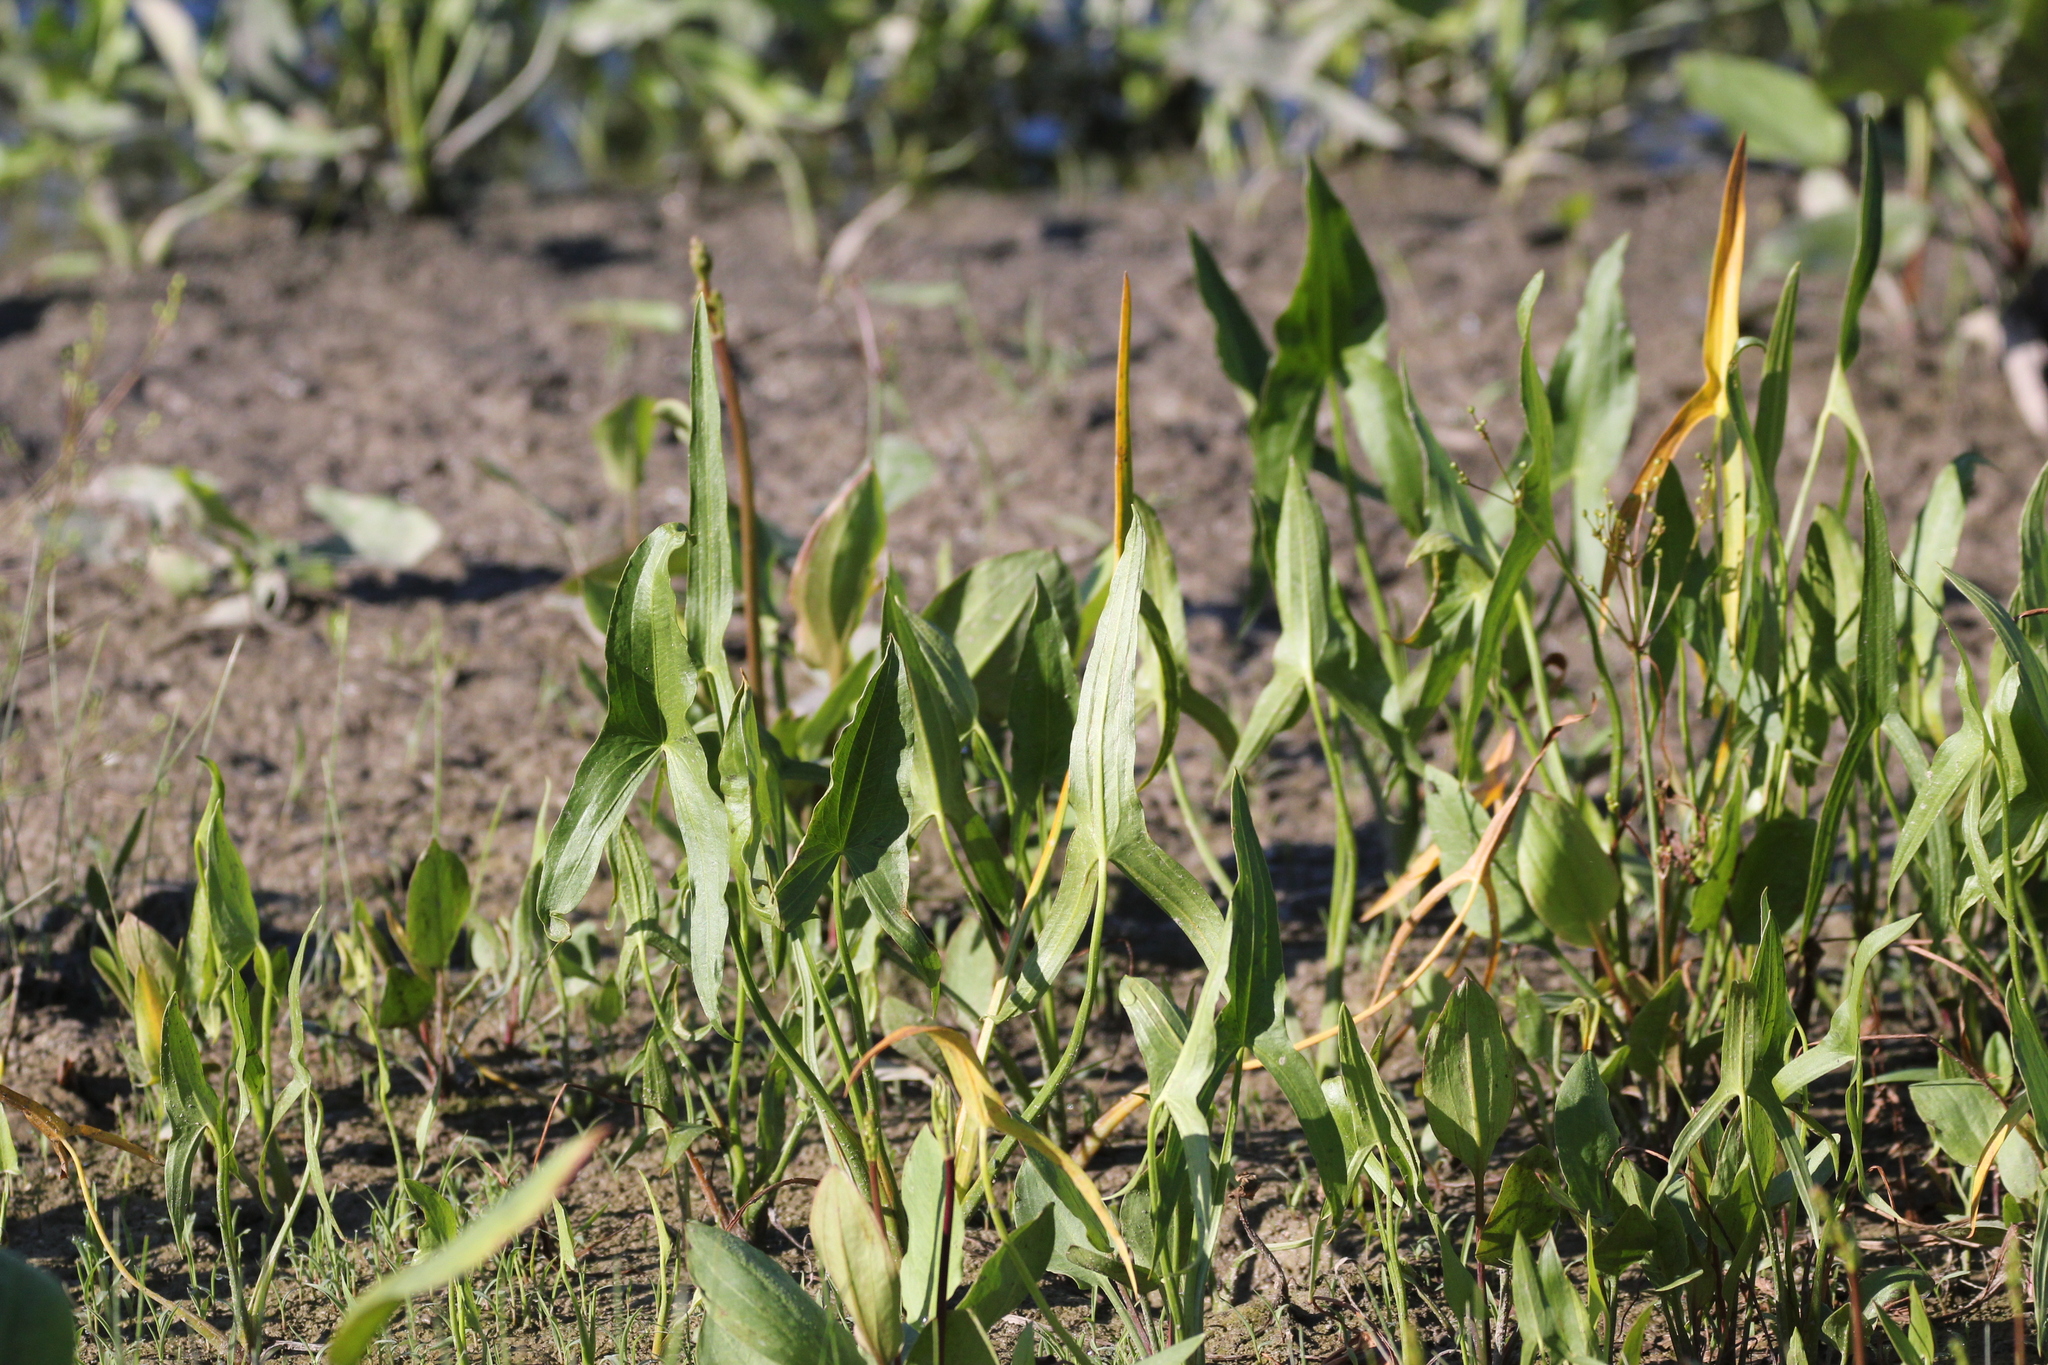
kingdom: Plantae
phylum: Tracheophyta
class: Liliopsida
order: Alismatales
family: Alismataceae
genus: Sagittaria
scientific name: Sagittaria latifolia
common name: Duck-potato
